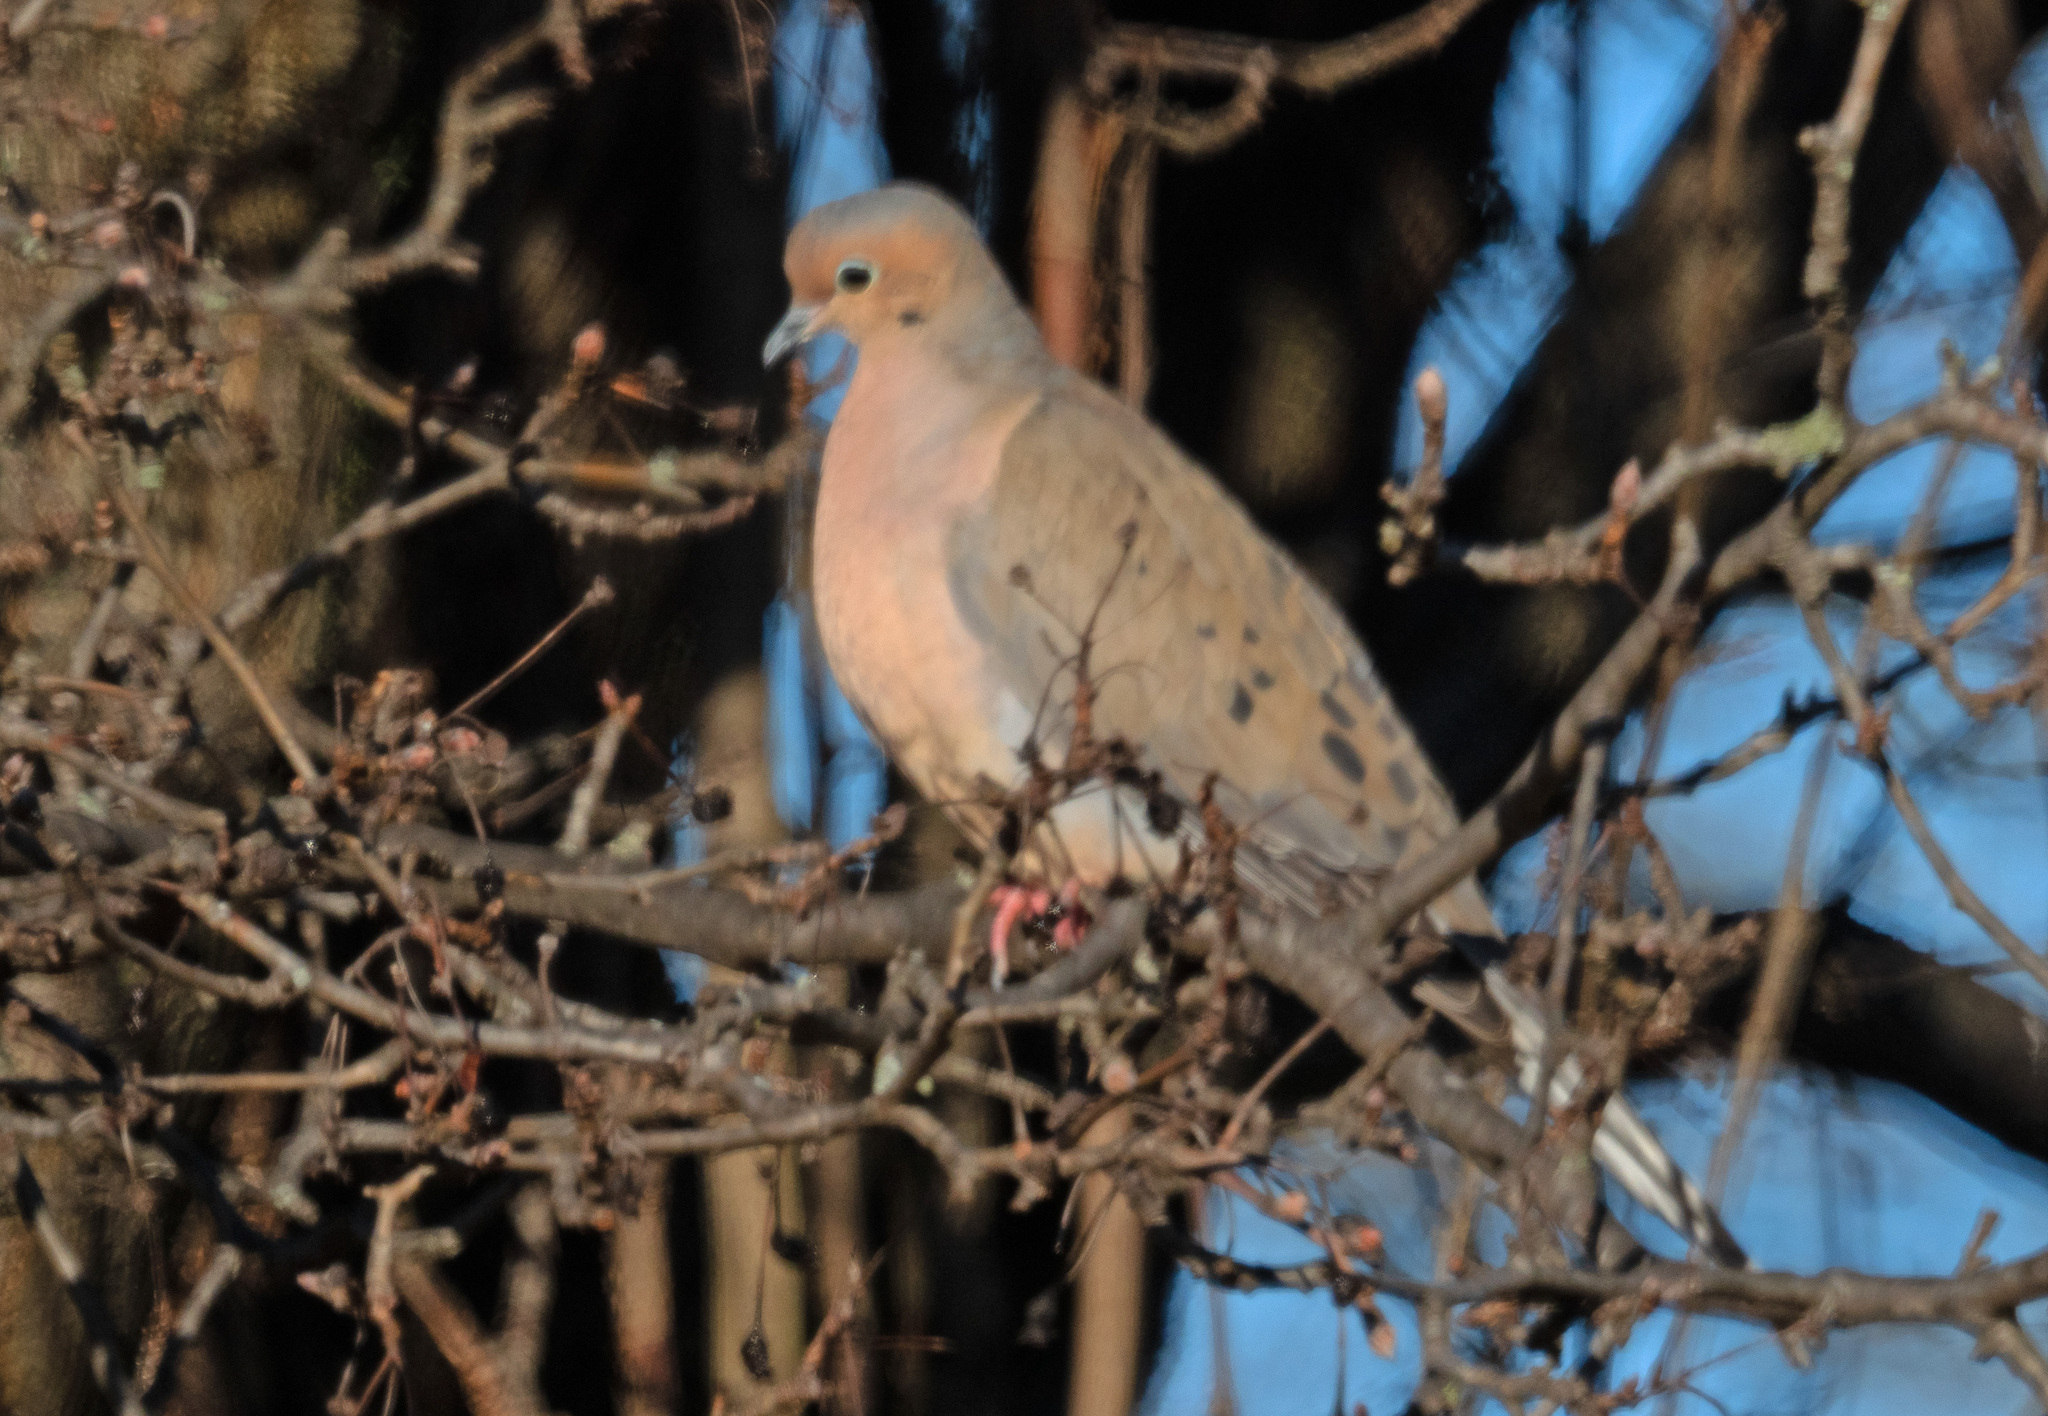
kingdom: Animalia
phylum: Chordata
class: Aves
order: Columbiformes
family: Columbidae
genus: Zenaida
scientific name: Zenaida macroura
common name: Mourning dove
